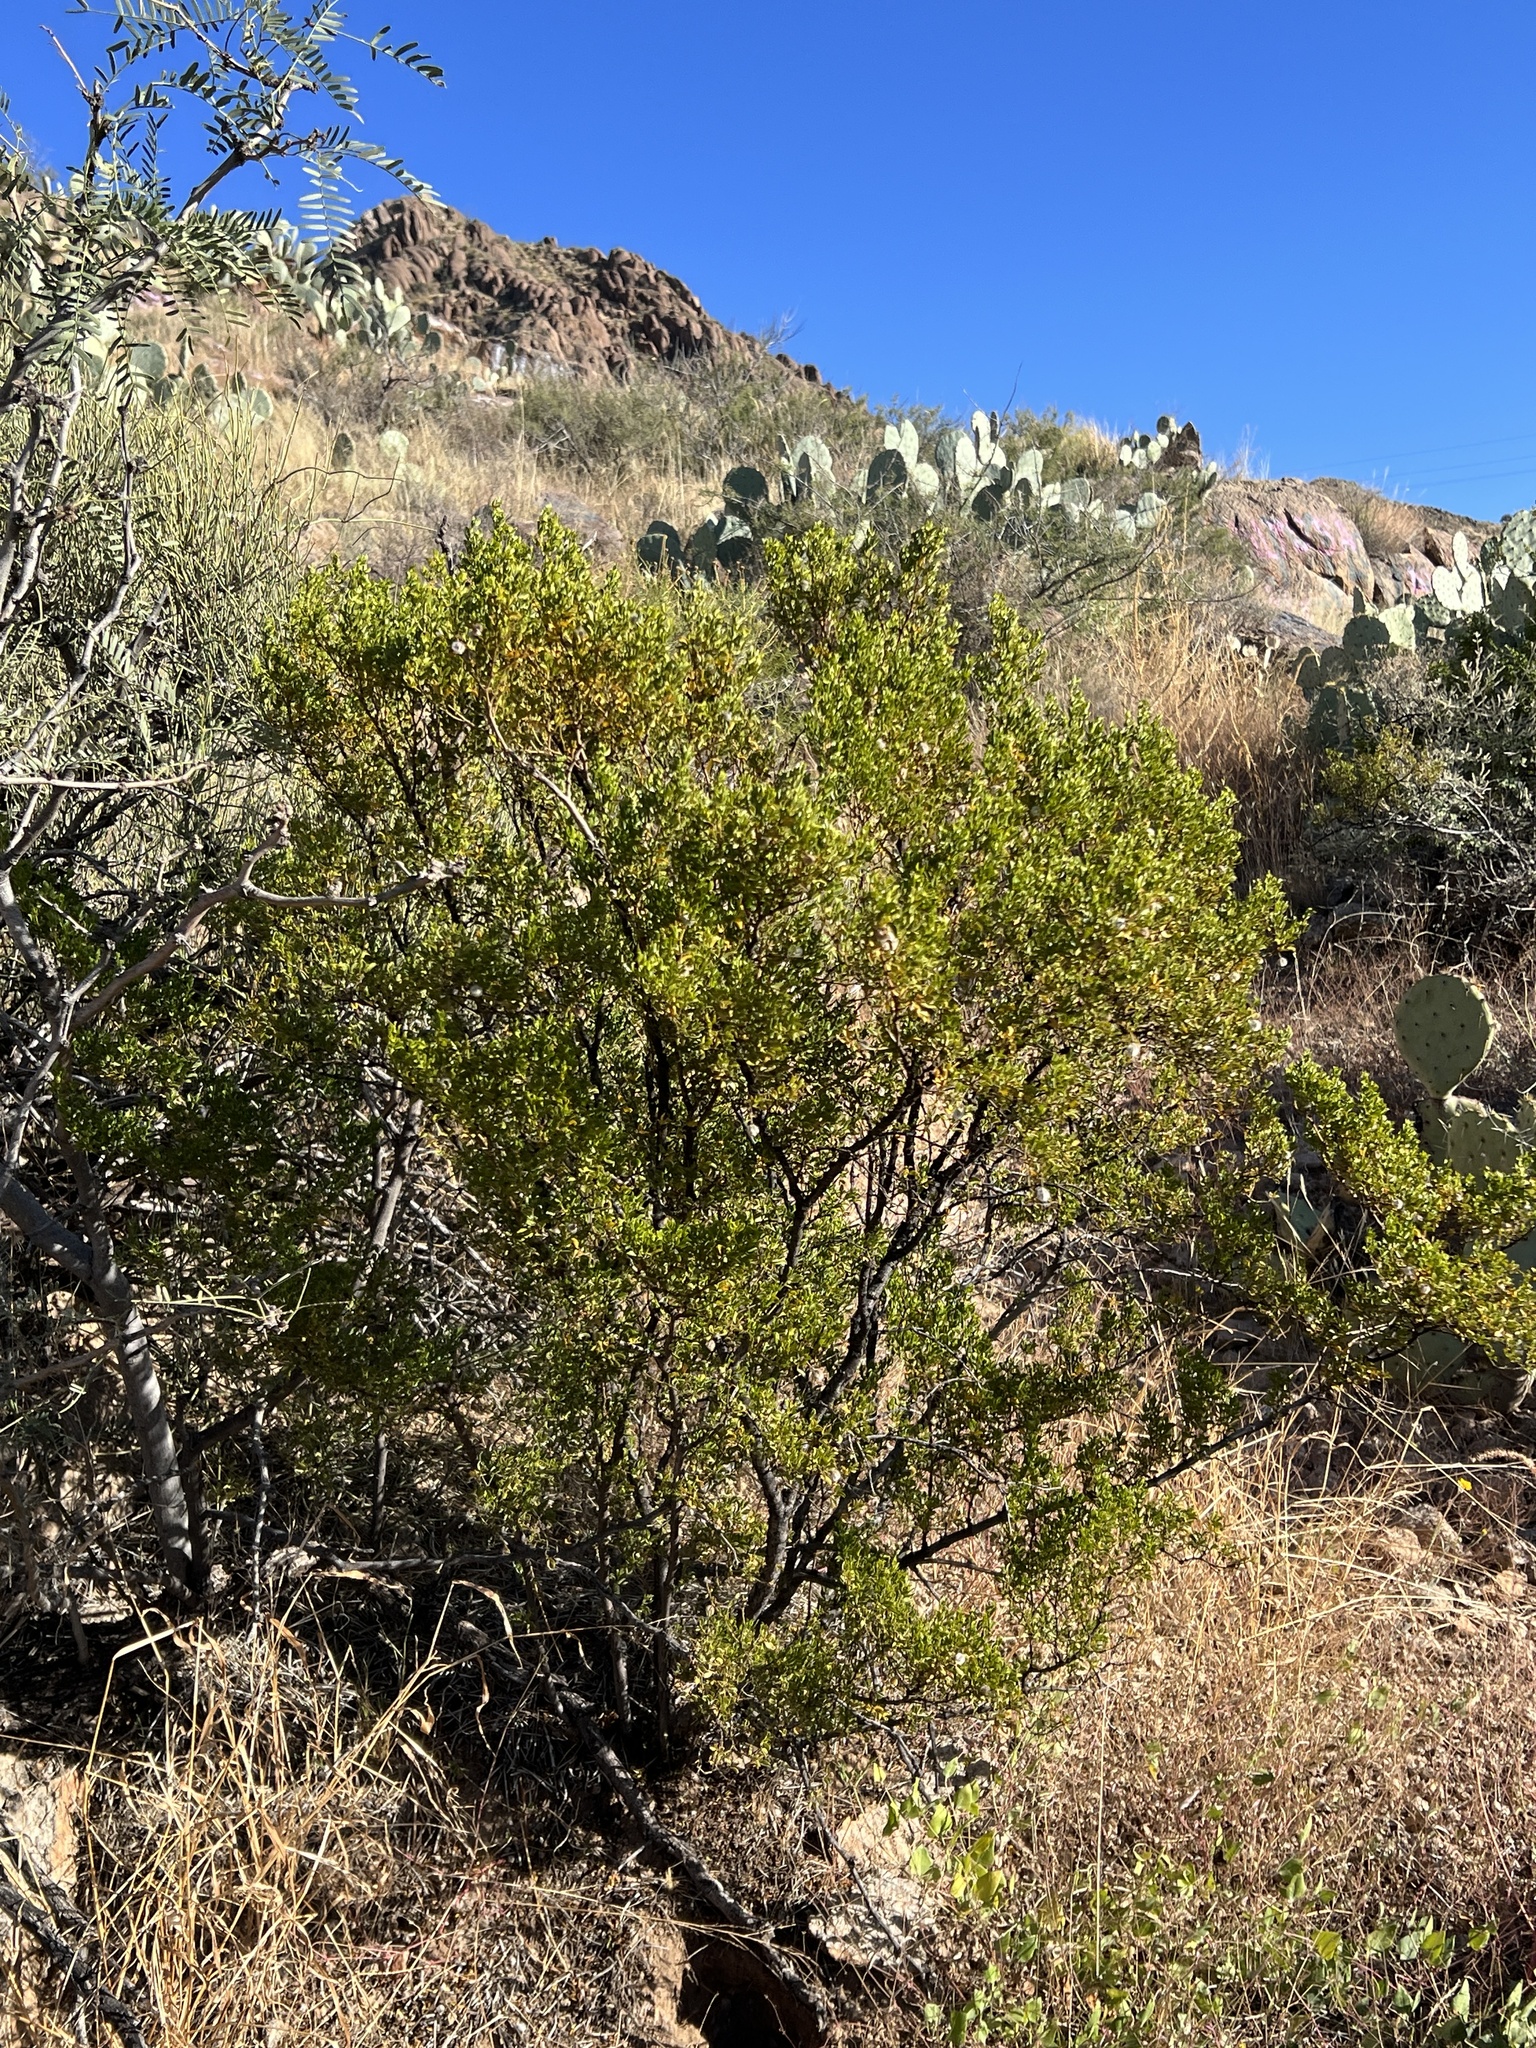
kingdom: Plantae
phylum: Tracheophyta
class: Magnoliopsida
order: Zygophyllales
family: Zygophyllaceae
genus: Larrea
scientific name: Larrea tridentata
